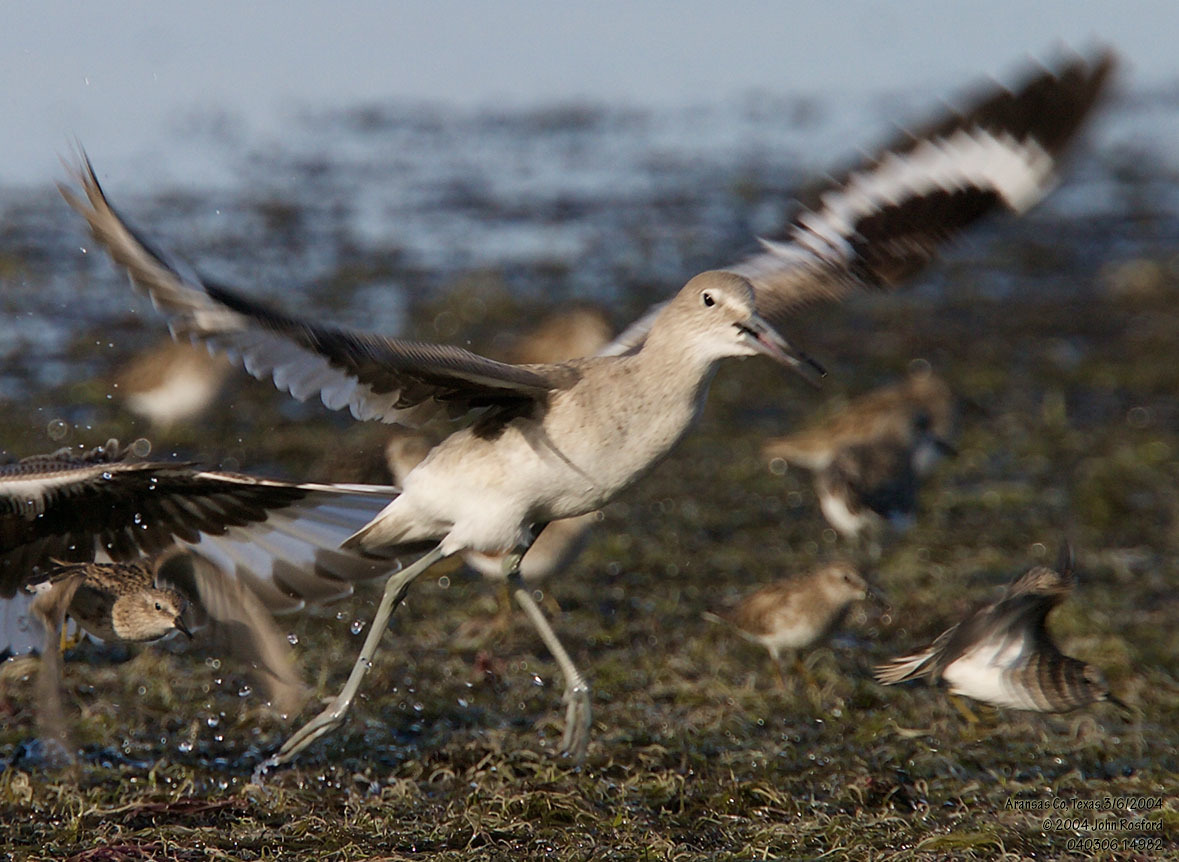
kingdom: Animalia
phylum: Chordata
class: Aves
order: Charadriiformes
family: Scolopacidae
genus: Tringa
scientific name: Tringa semipalmata
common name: Willet
